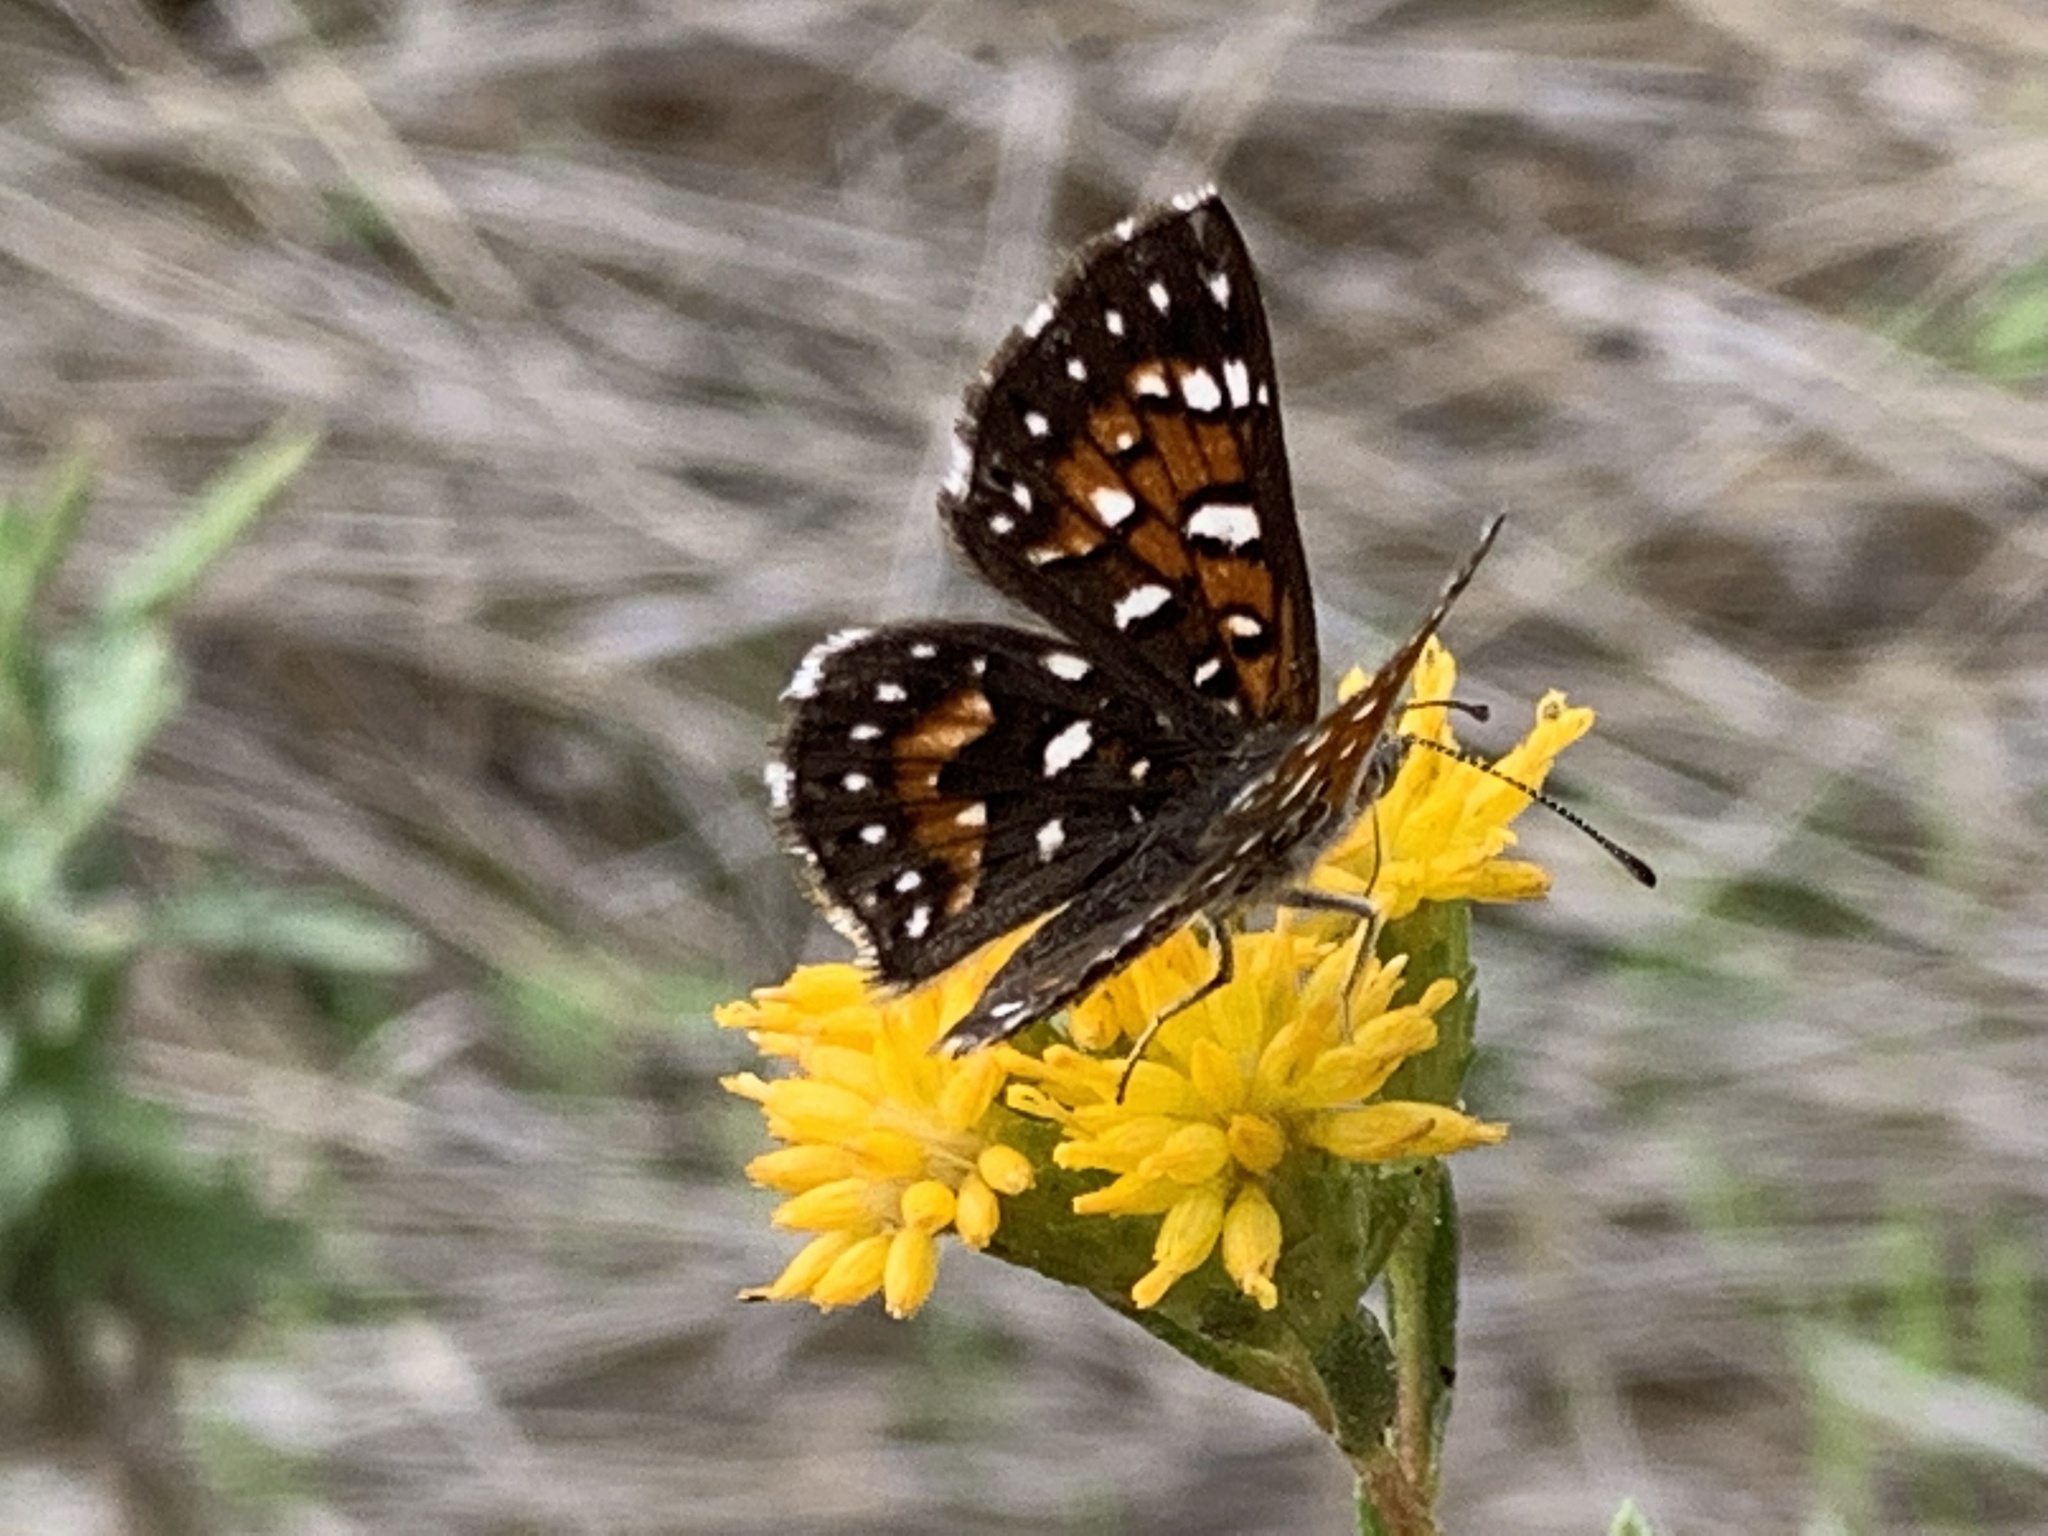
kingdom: Animalia
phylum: Arthropoda
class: Insecta
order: Lepidoptera
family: Riodinidae
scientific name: Riodinidae
